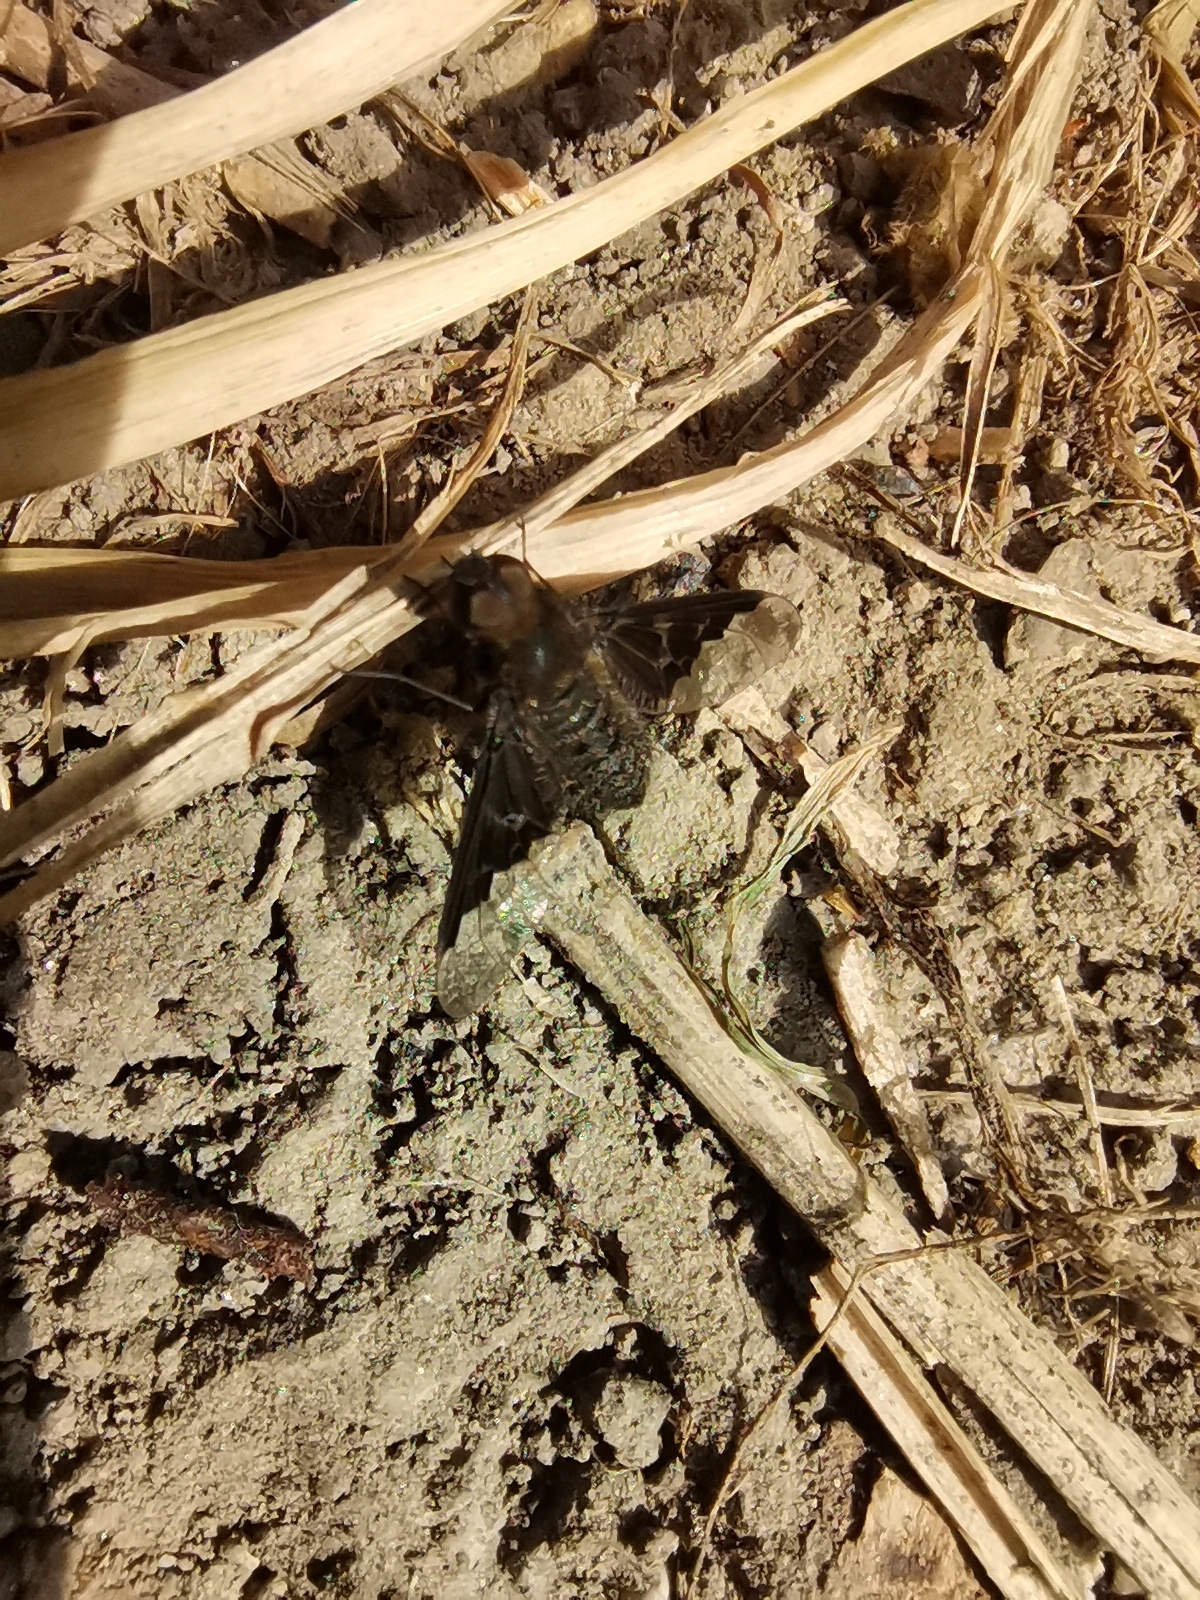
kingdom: Animalia
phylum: Arthropoda
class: Insecta
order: Diptera
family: Bombyliidae
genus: Hemipenthes
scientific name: Hemipenthes morio
